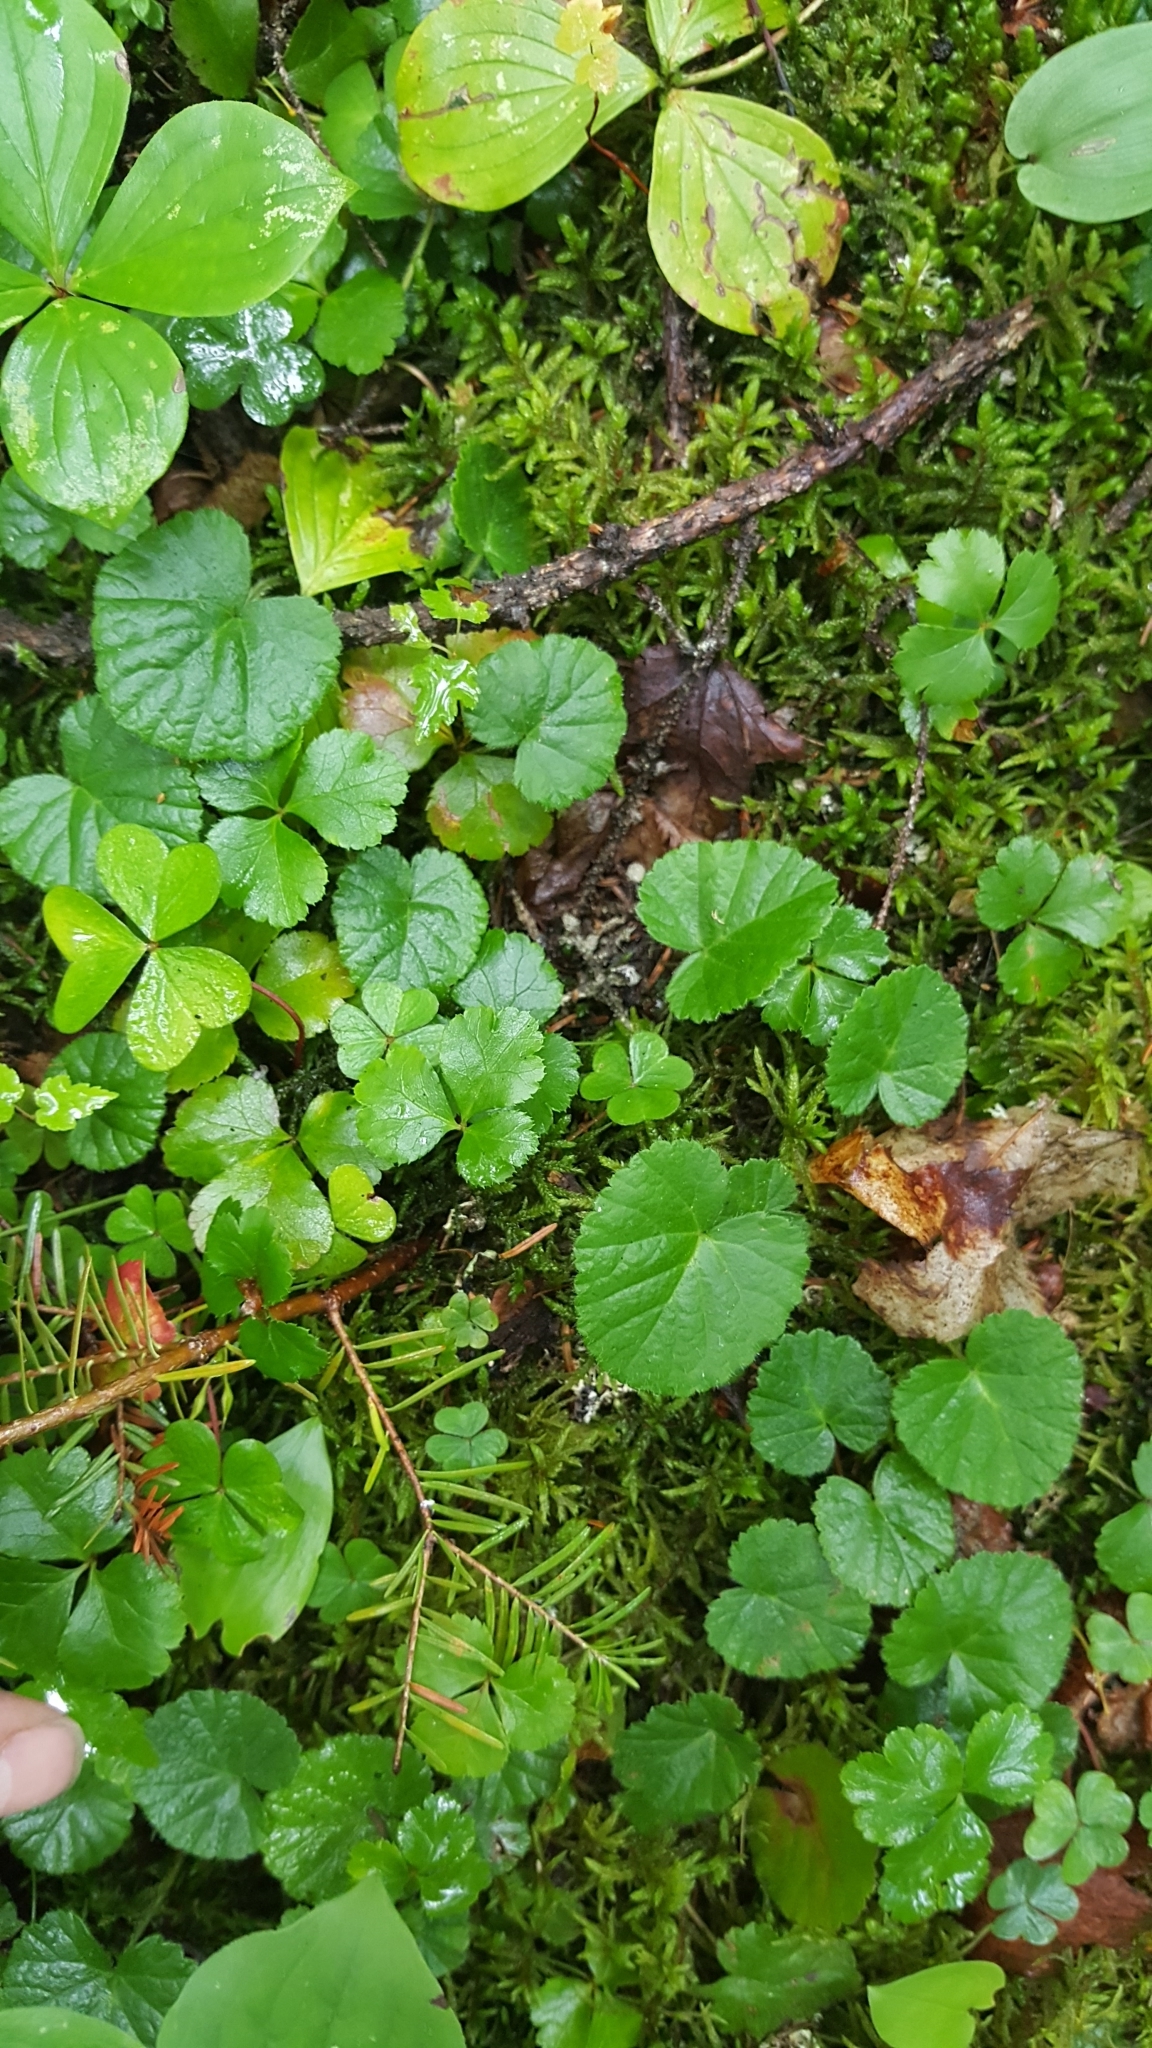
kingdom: Plantae
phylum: Tracheophyta
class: Magnoliopsida
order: Rosales
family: Rosaceae
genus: Dalibarda
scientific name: Dalibarda repens
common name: Dewdrop
